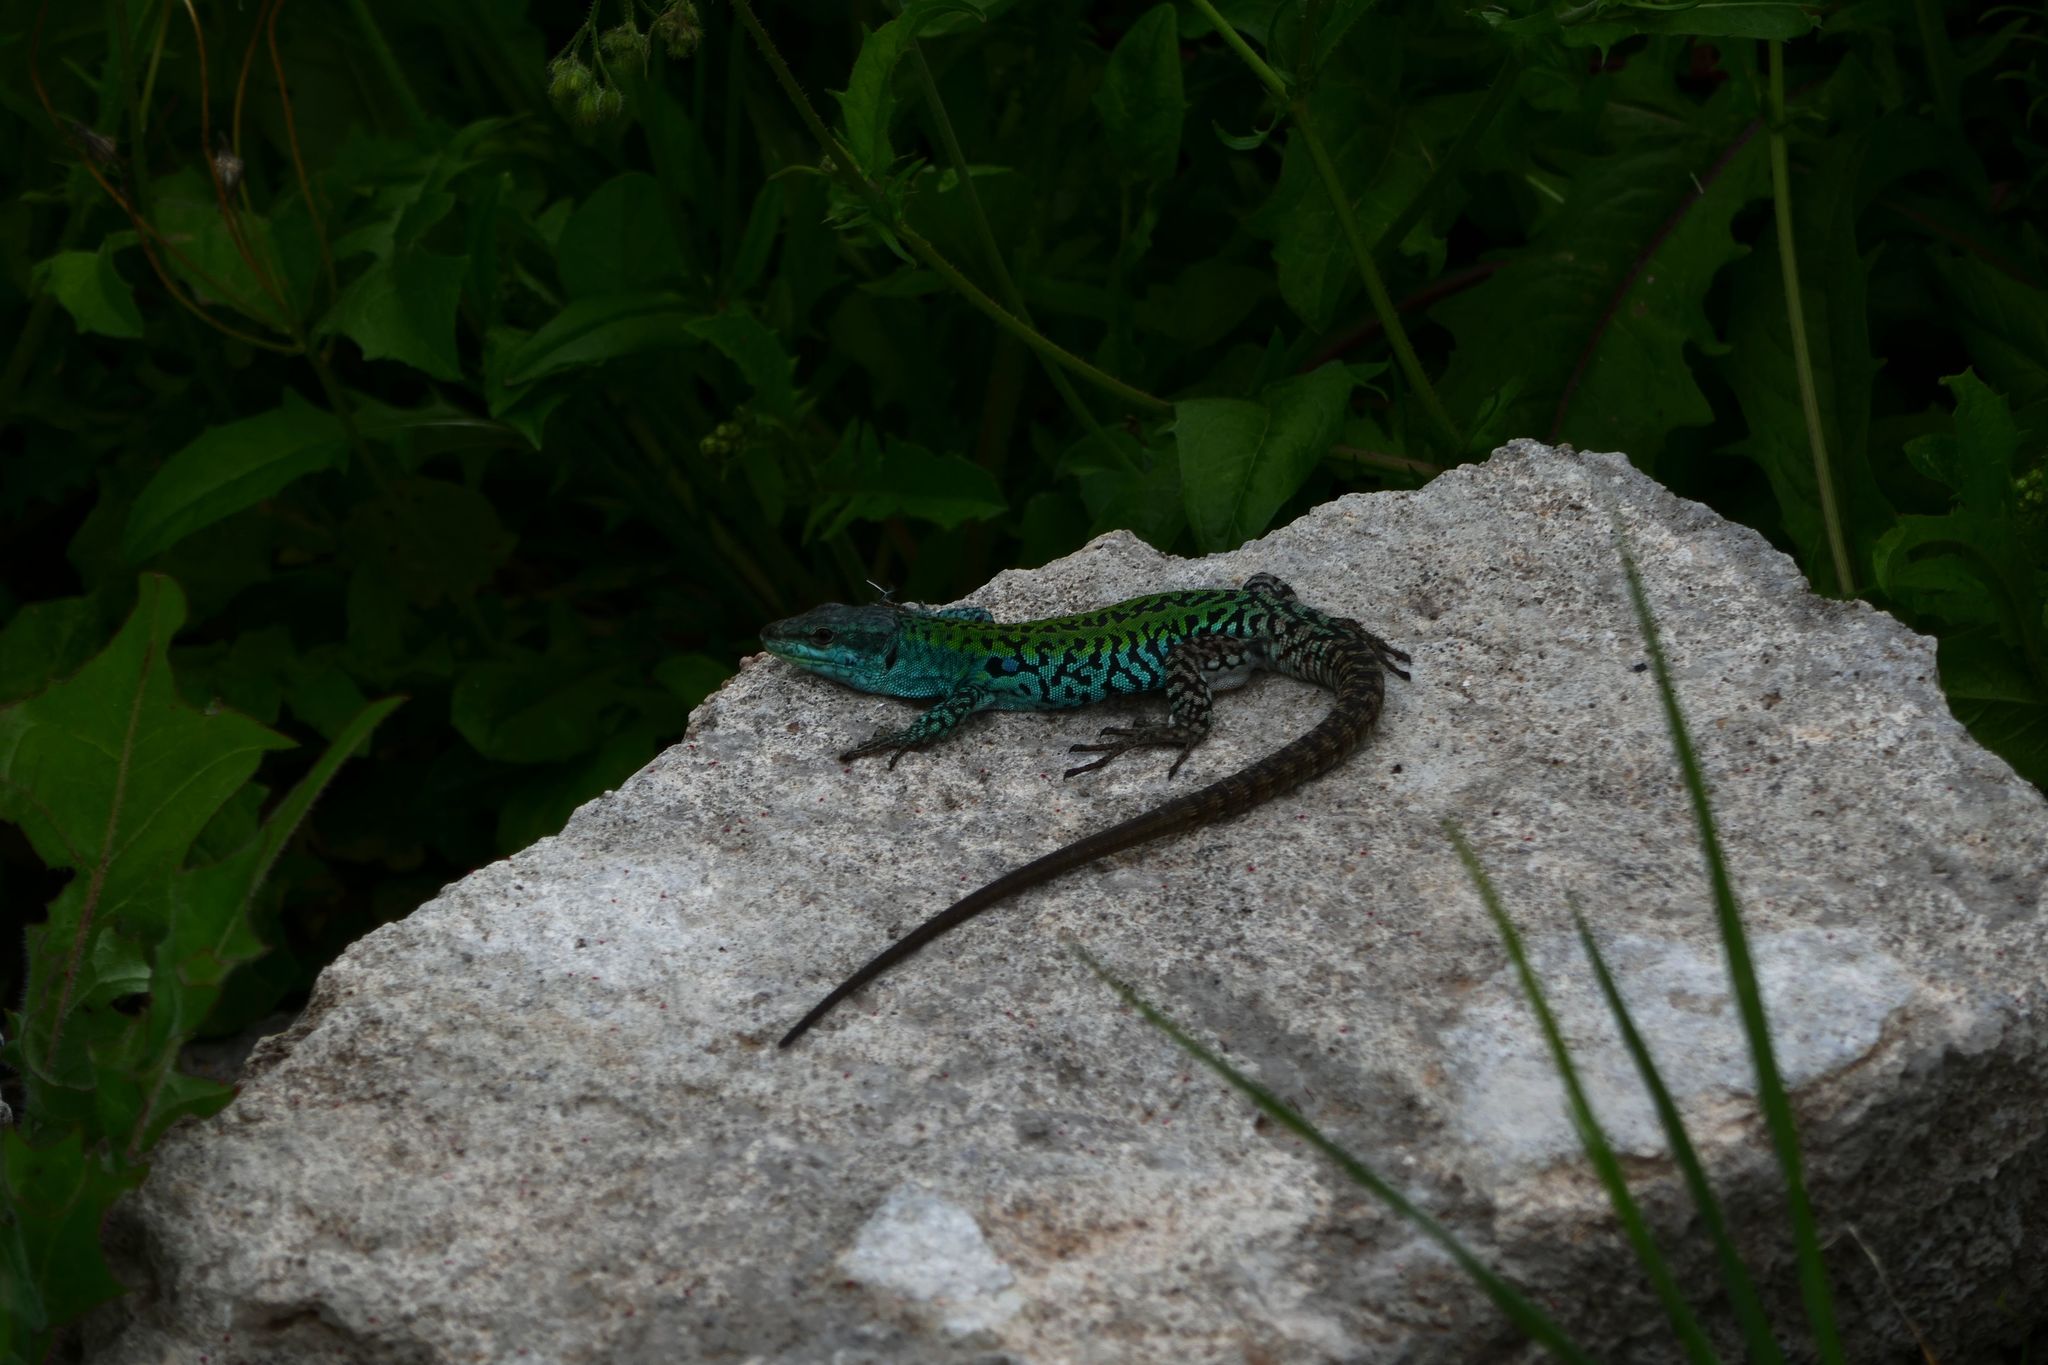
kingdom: Animalia
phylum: Chordata
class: Squamata
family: Lacertidae
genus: Podarcis
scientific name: Podarcis siculus
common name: Italian wall lizard
